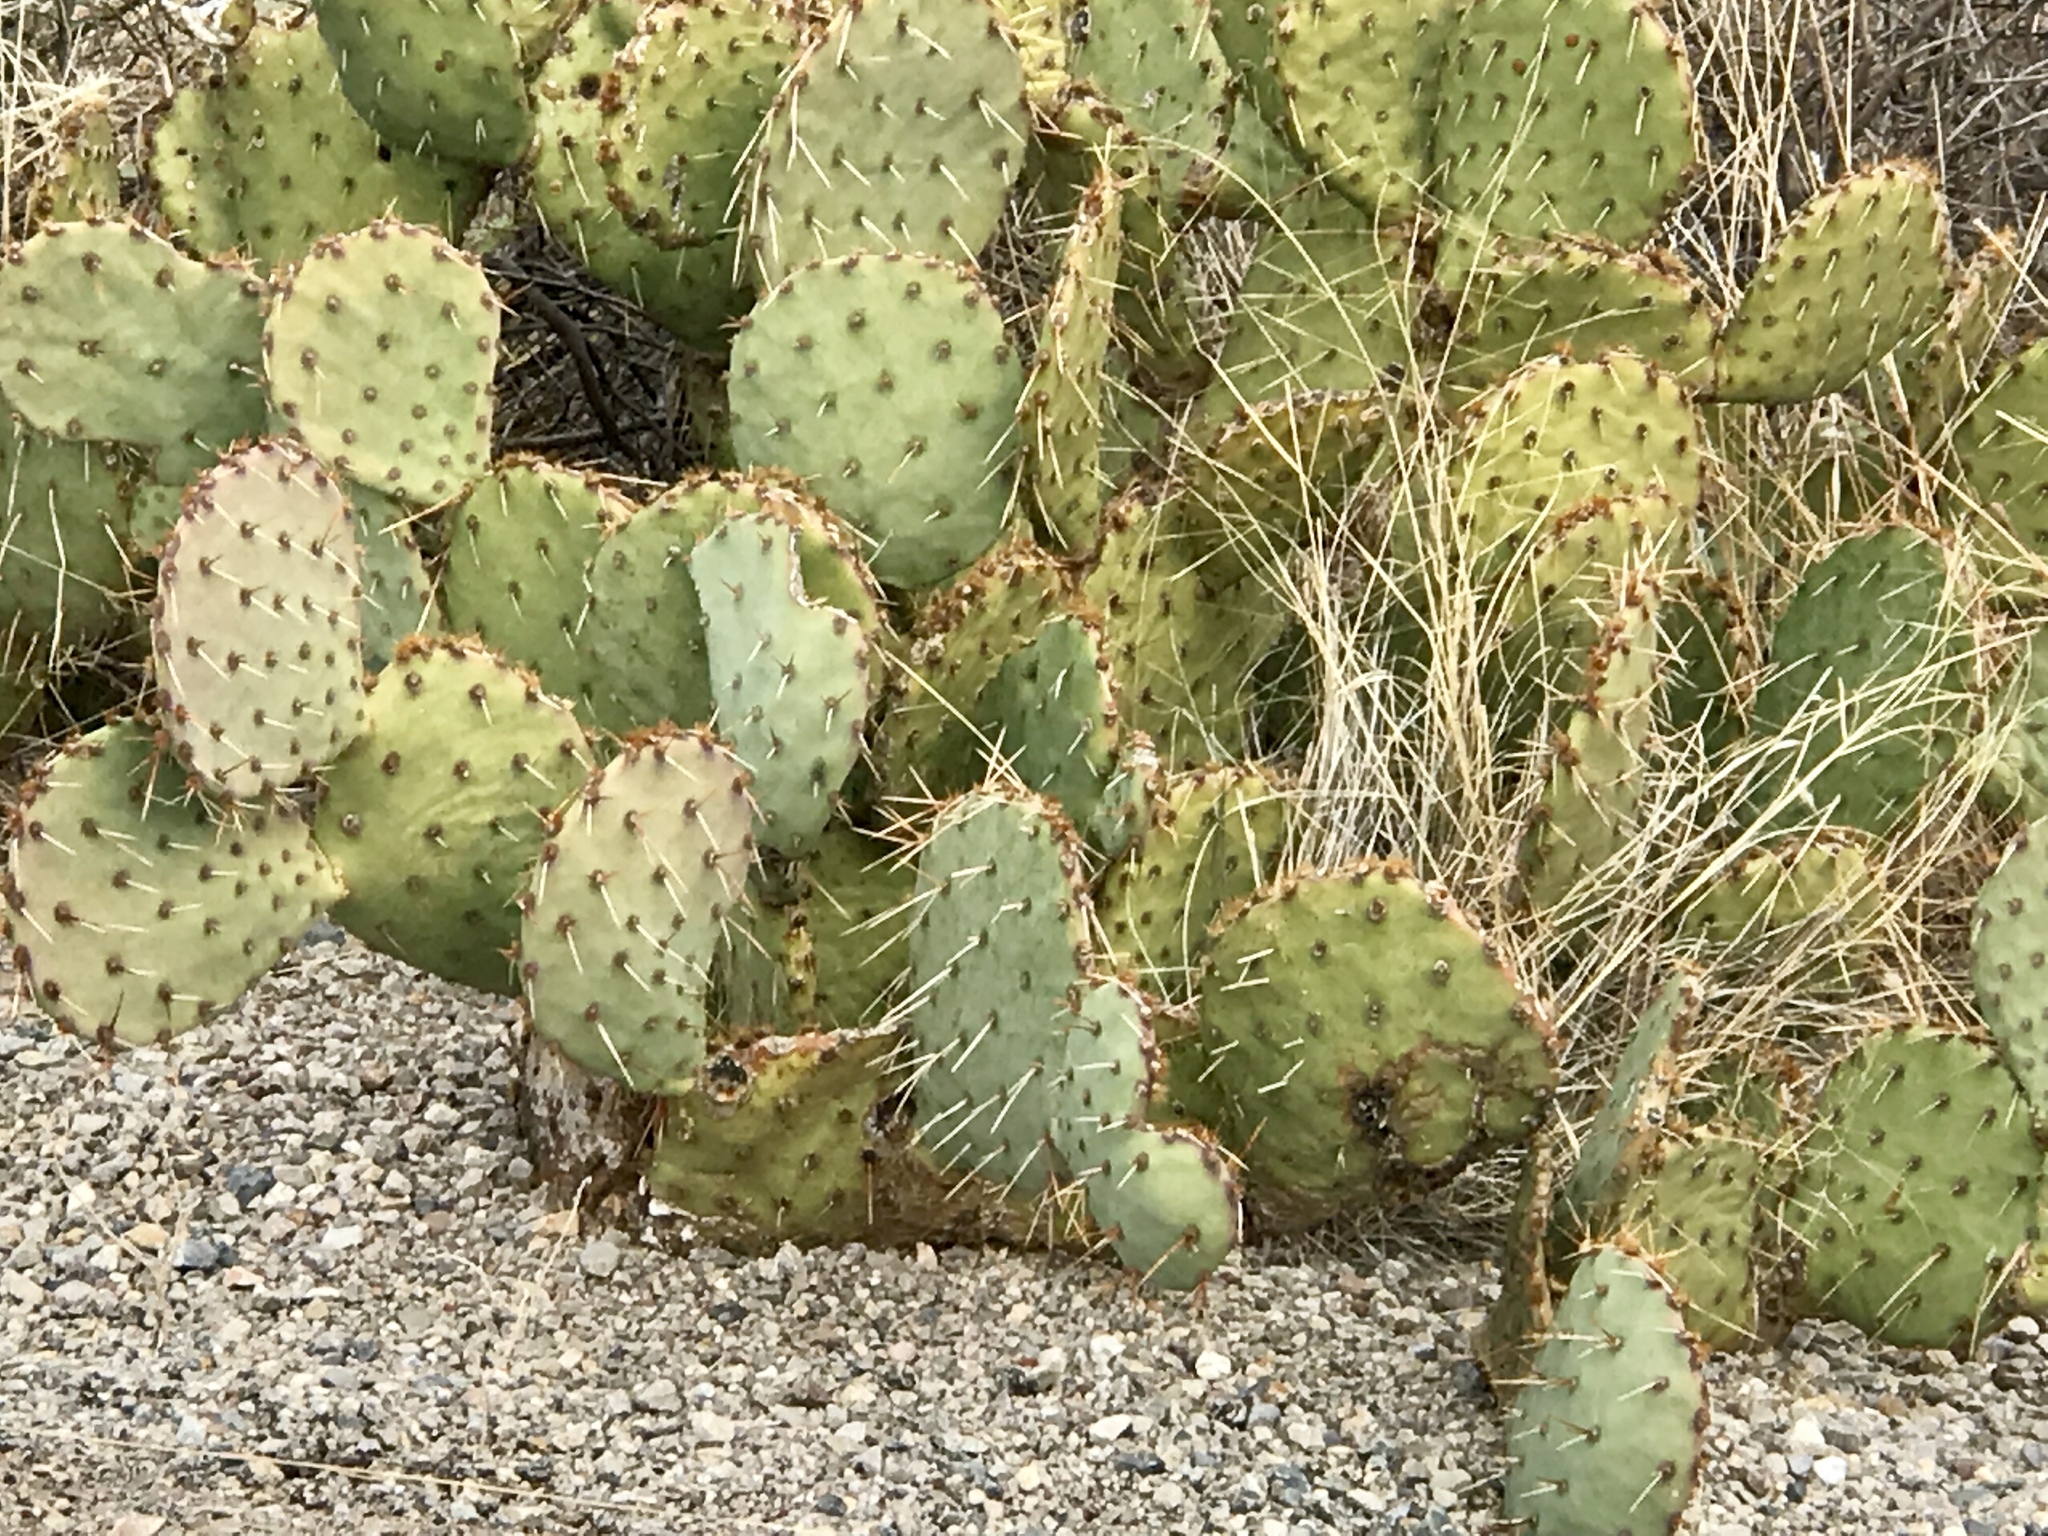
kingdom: Plantae
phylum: Tracheophyta
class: Magnoliopsida
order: Caryophyllales
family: Cactaceae
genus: Opuntia
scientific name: Opuntia engelmannii
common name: Cactus-apple
